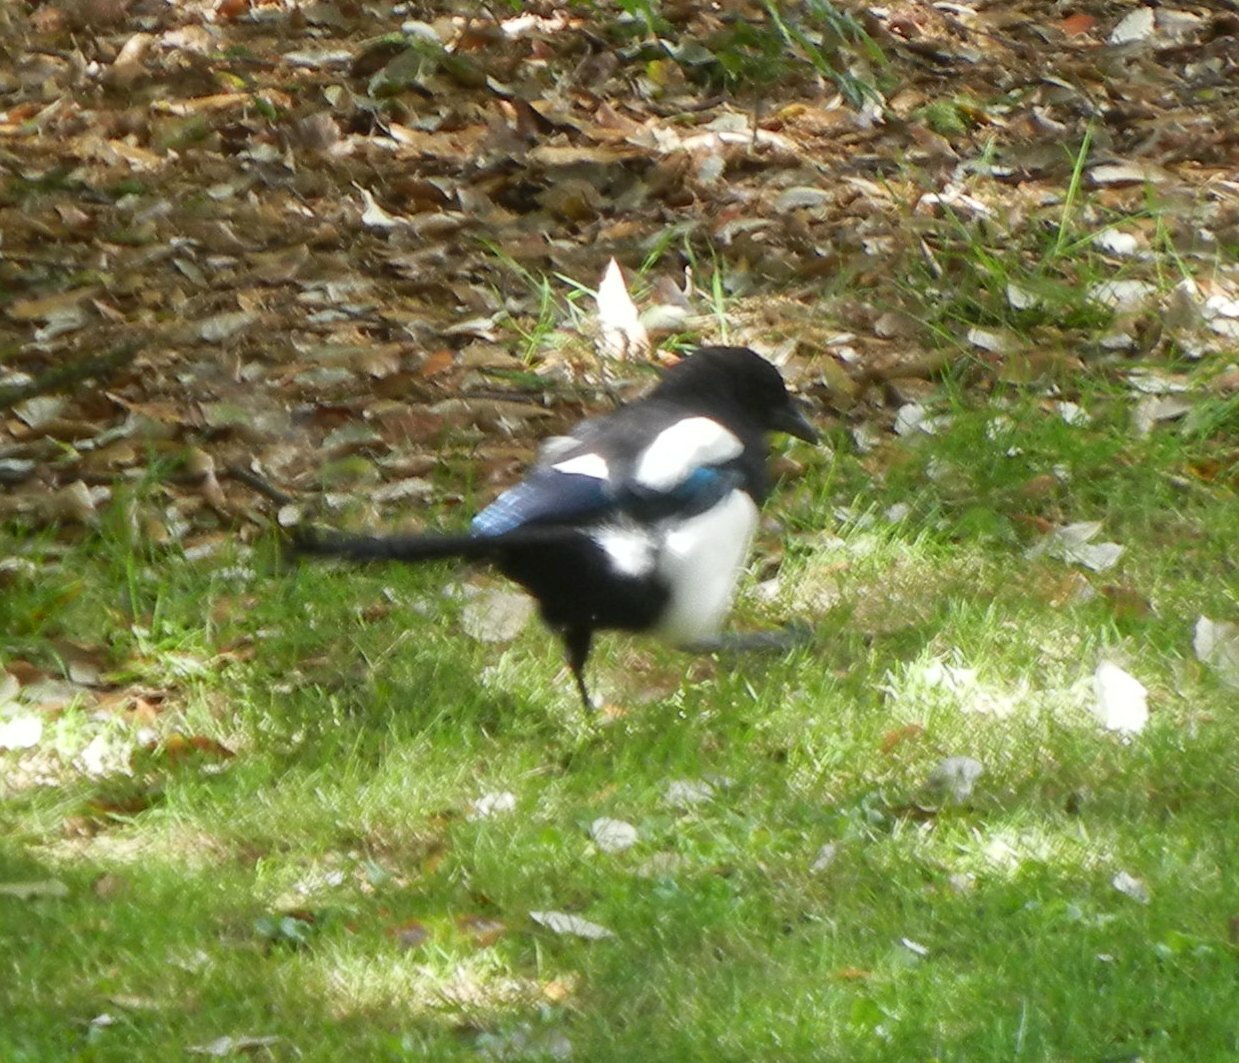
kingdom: Animalia
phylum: Chordata
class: Aves
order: Passeriformes
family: Corvidae
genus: Pica
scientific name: Pica pica
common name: Eurasian magpie
